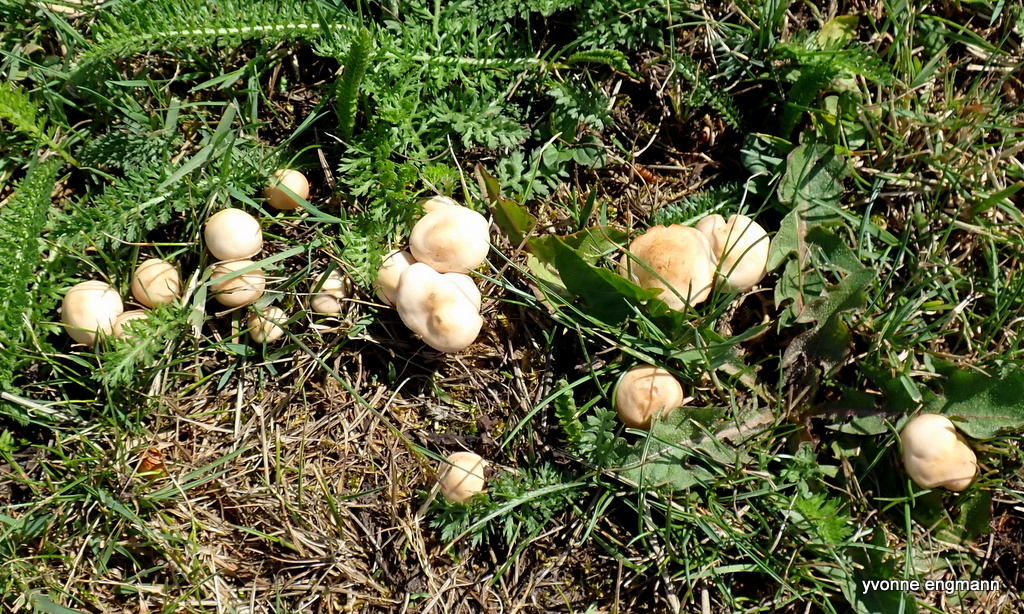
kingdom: Fungi
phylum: Basidiomycota
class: Agaricomycetes
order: Agaricales
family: Marasmiaceae
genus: Marasmius
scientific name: Marasmius oreades
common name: Fairy ring champignon
